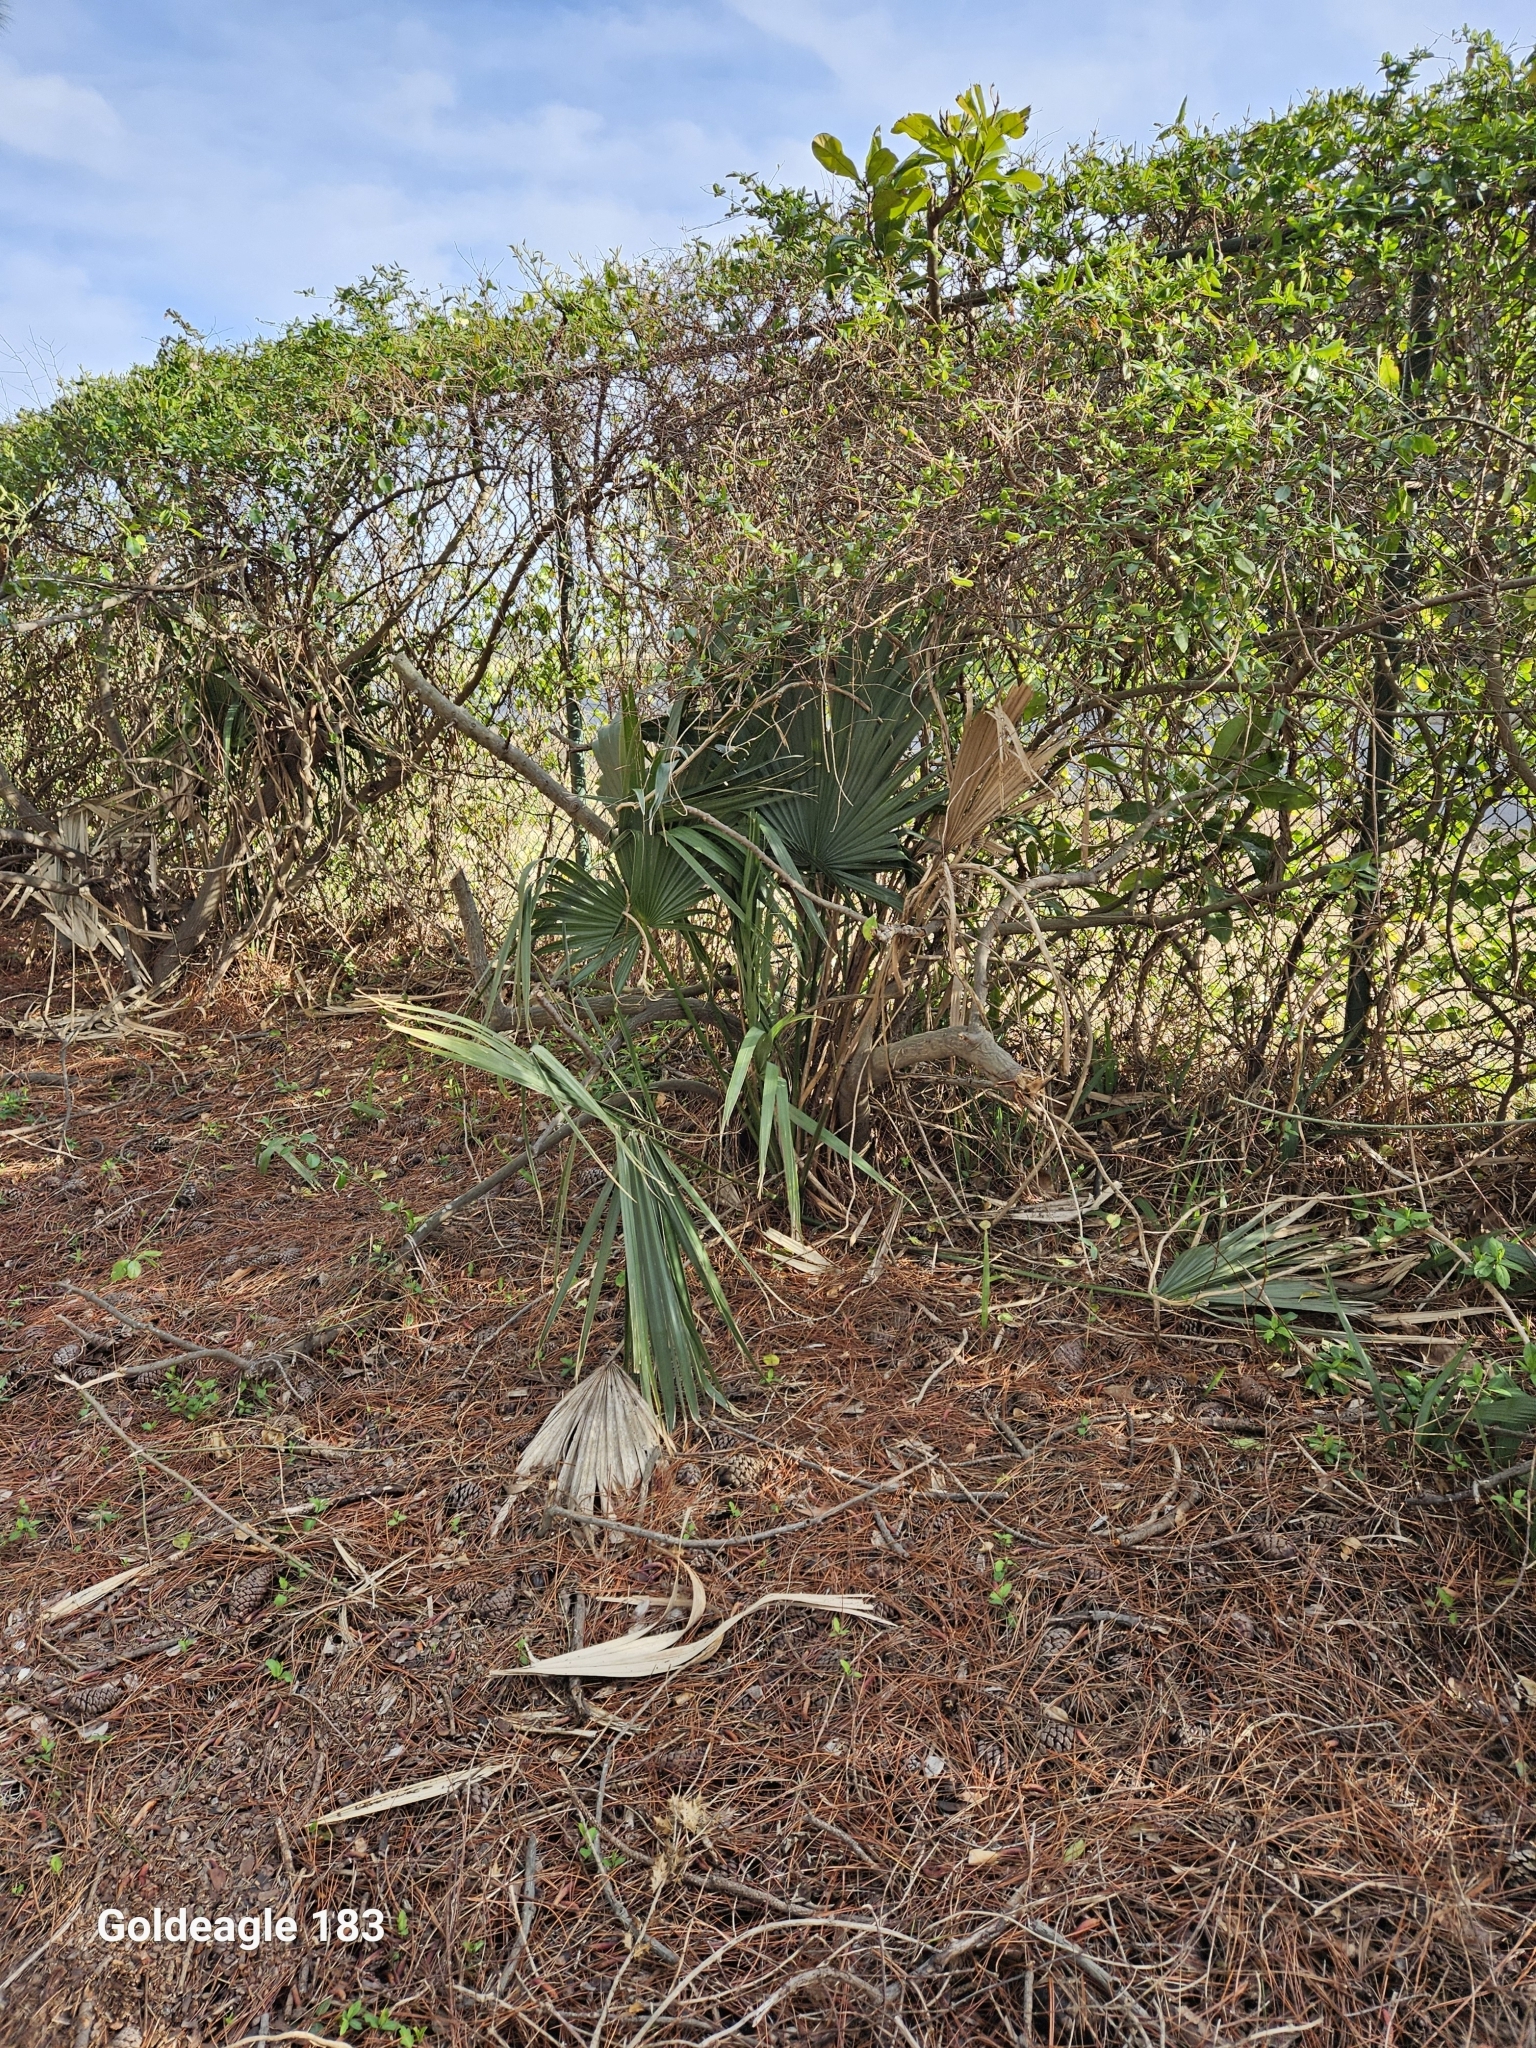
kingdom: Plantae
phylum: Tracheophyta
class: Liliopsida
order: Arecales
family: Arecaceae
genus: Sabal
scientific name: Sabal minor
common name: Dwarf palmetto
